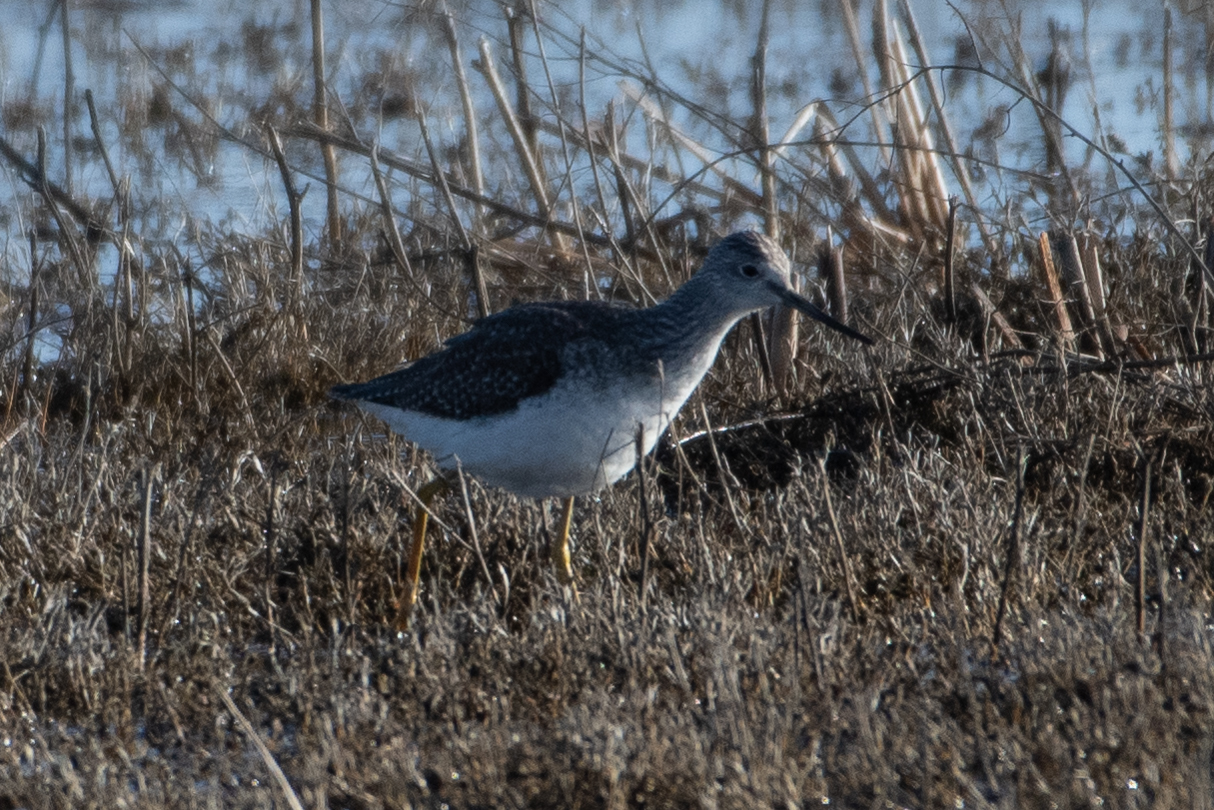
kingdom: Animalia
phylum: Chordata
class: Aves
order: Charadriiformes
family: Scolopacidae
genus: Tringa
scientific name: Tringa melanoleuca
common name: Greater yellowlegs
